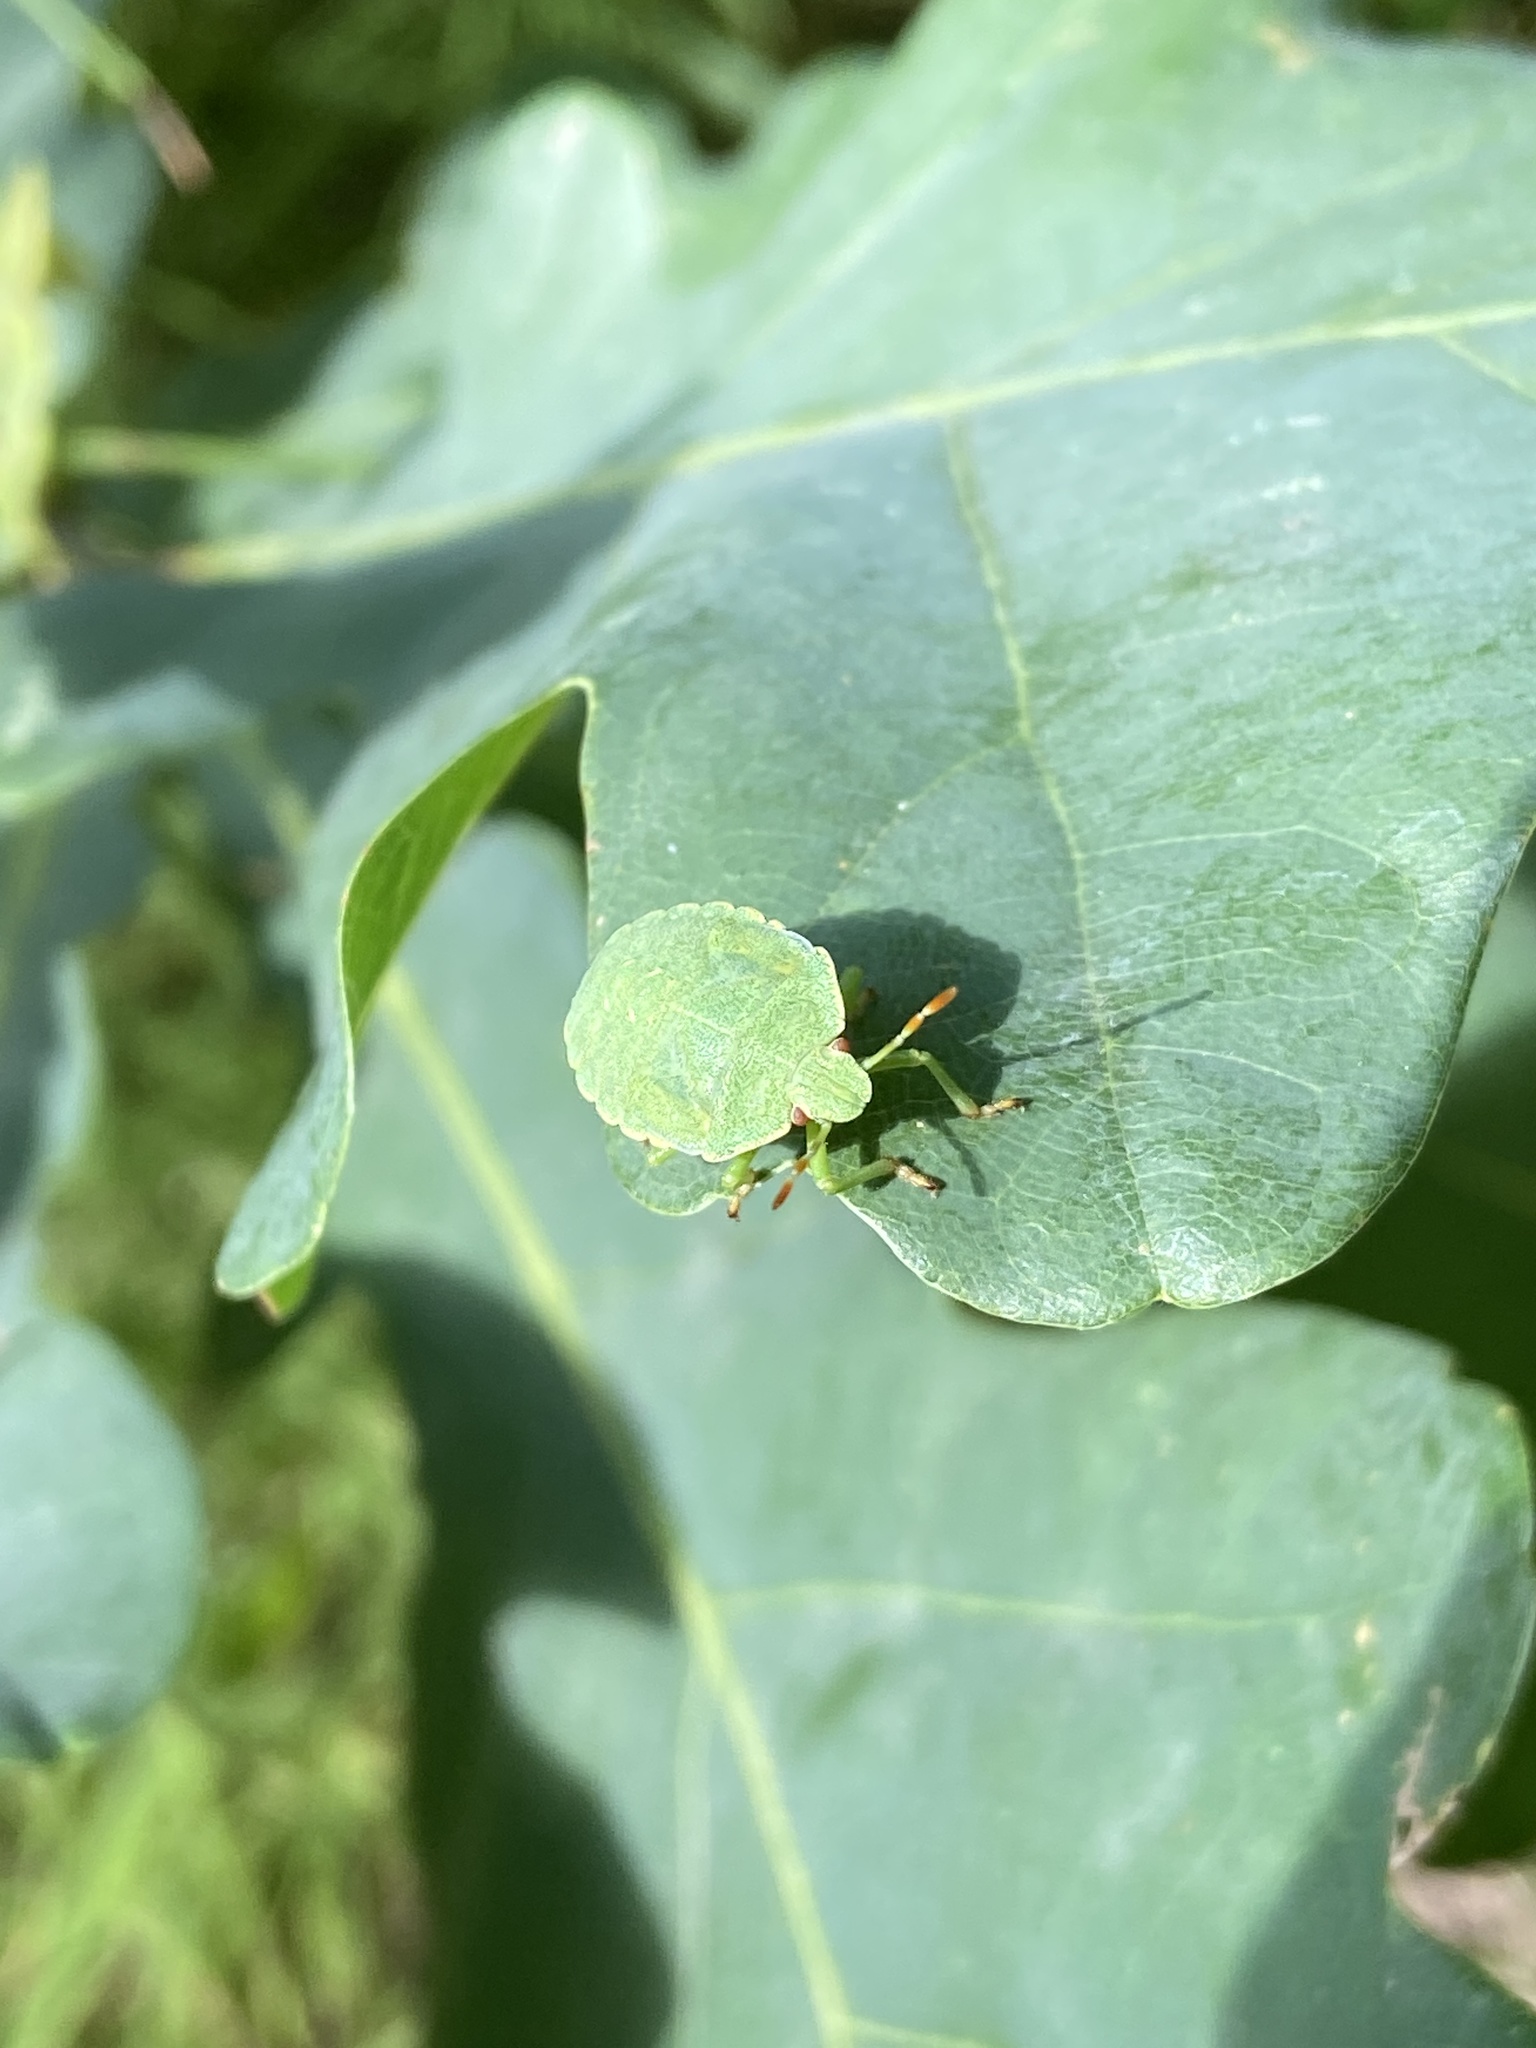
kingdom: Animalia
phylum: Arthropoda
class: Insecta
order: Hemiptera
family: Pentatomidae
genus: Palomena
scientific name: Palomena prasina
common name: Green shieldbug
